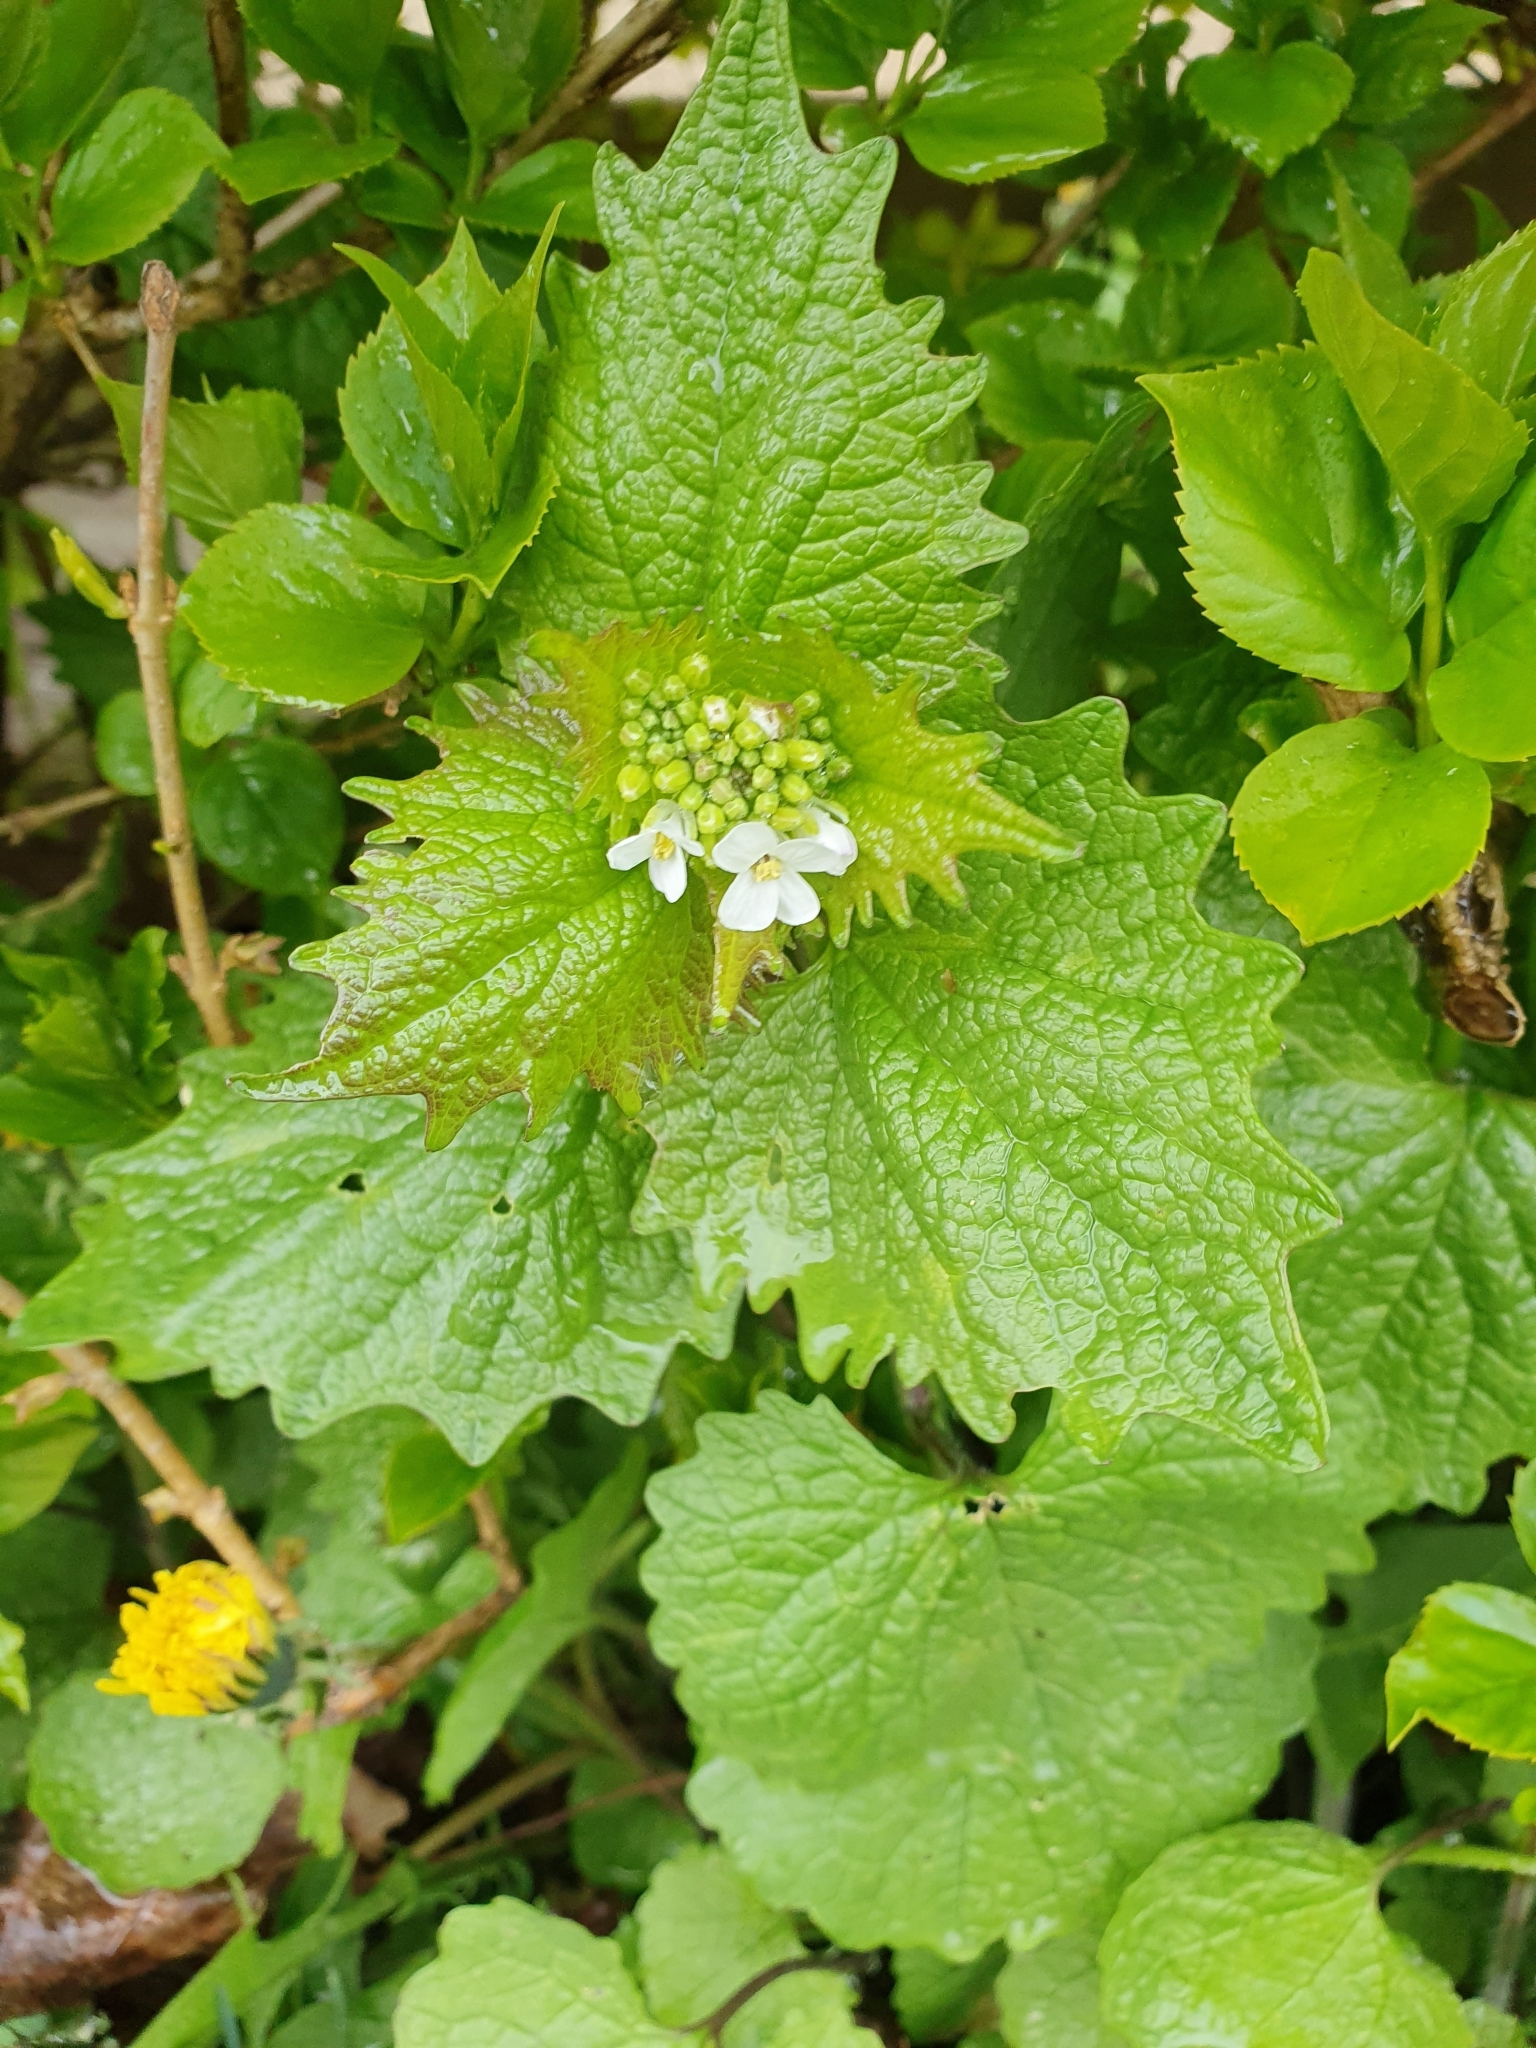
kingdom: Plantae
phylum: Tracheophyta
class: Magnoliopsida
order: Brassicales
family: Brassicaceae
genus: Alliaria
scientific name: Alliaria petiolata
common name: Garlic mustard
